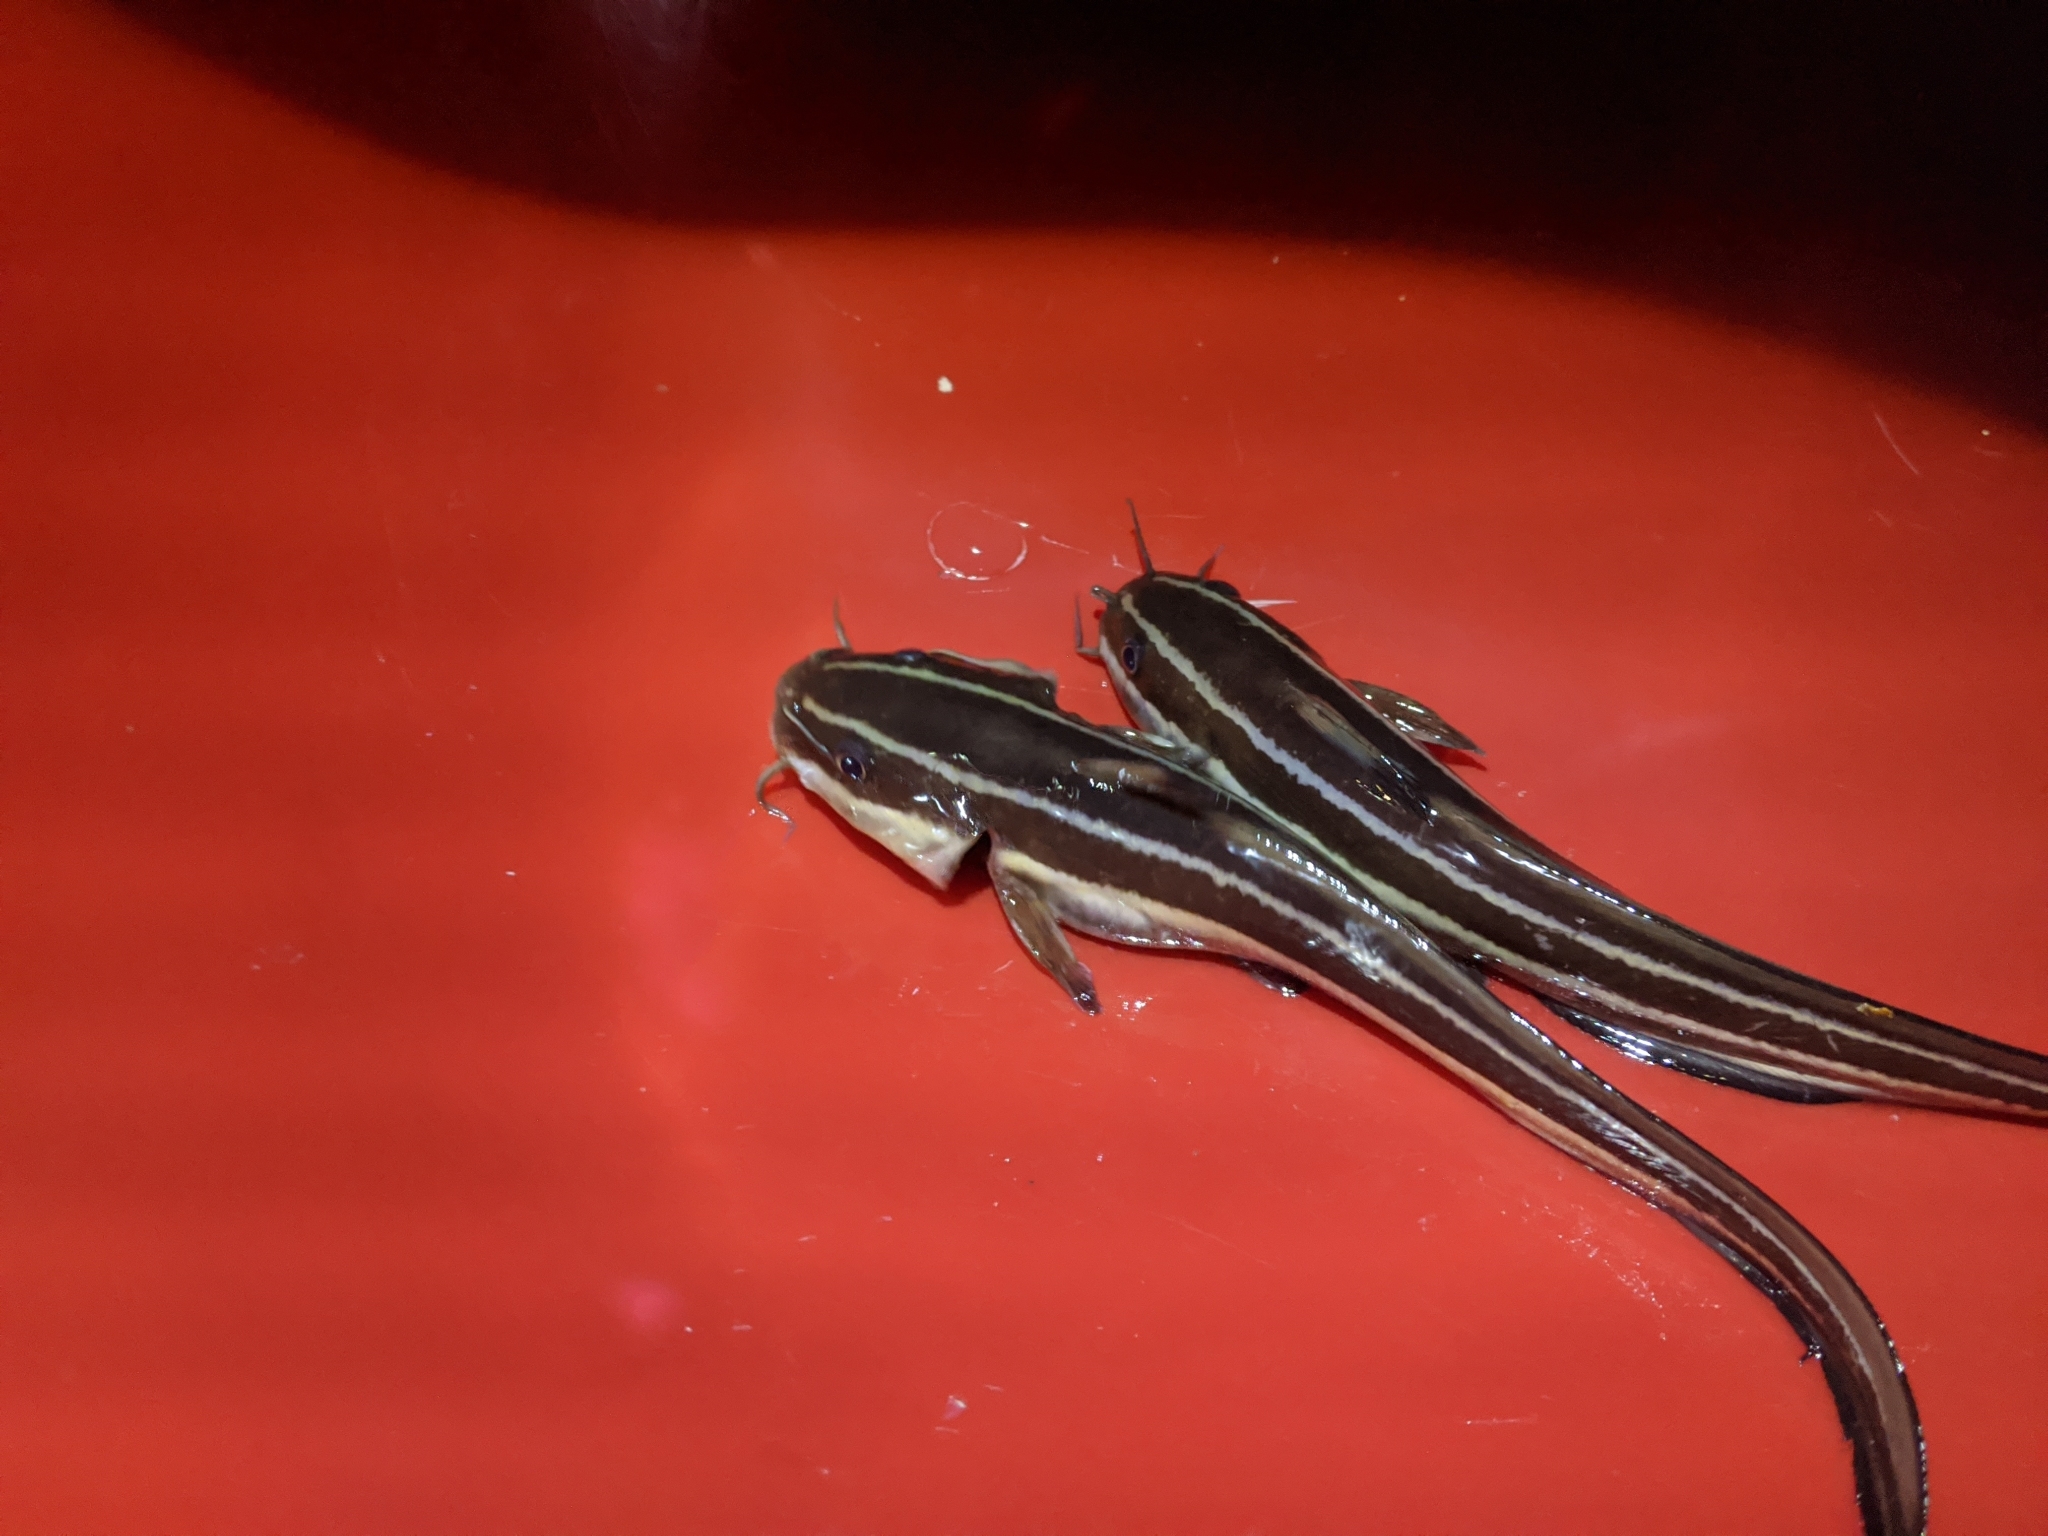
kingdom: Animalia
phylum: Chordata
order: Siluriformes
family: Plotosidae
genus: Plotosus
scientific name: Plotosus lineatus
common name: Striped eel catfish
